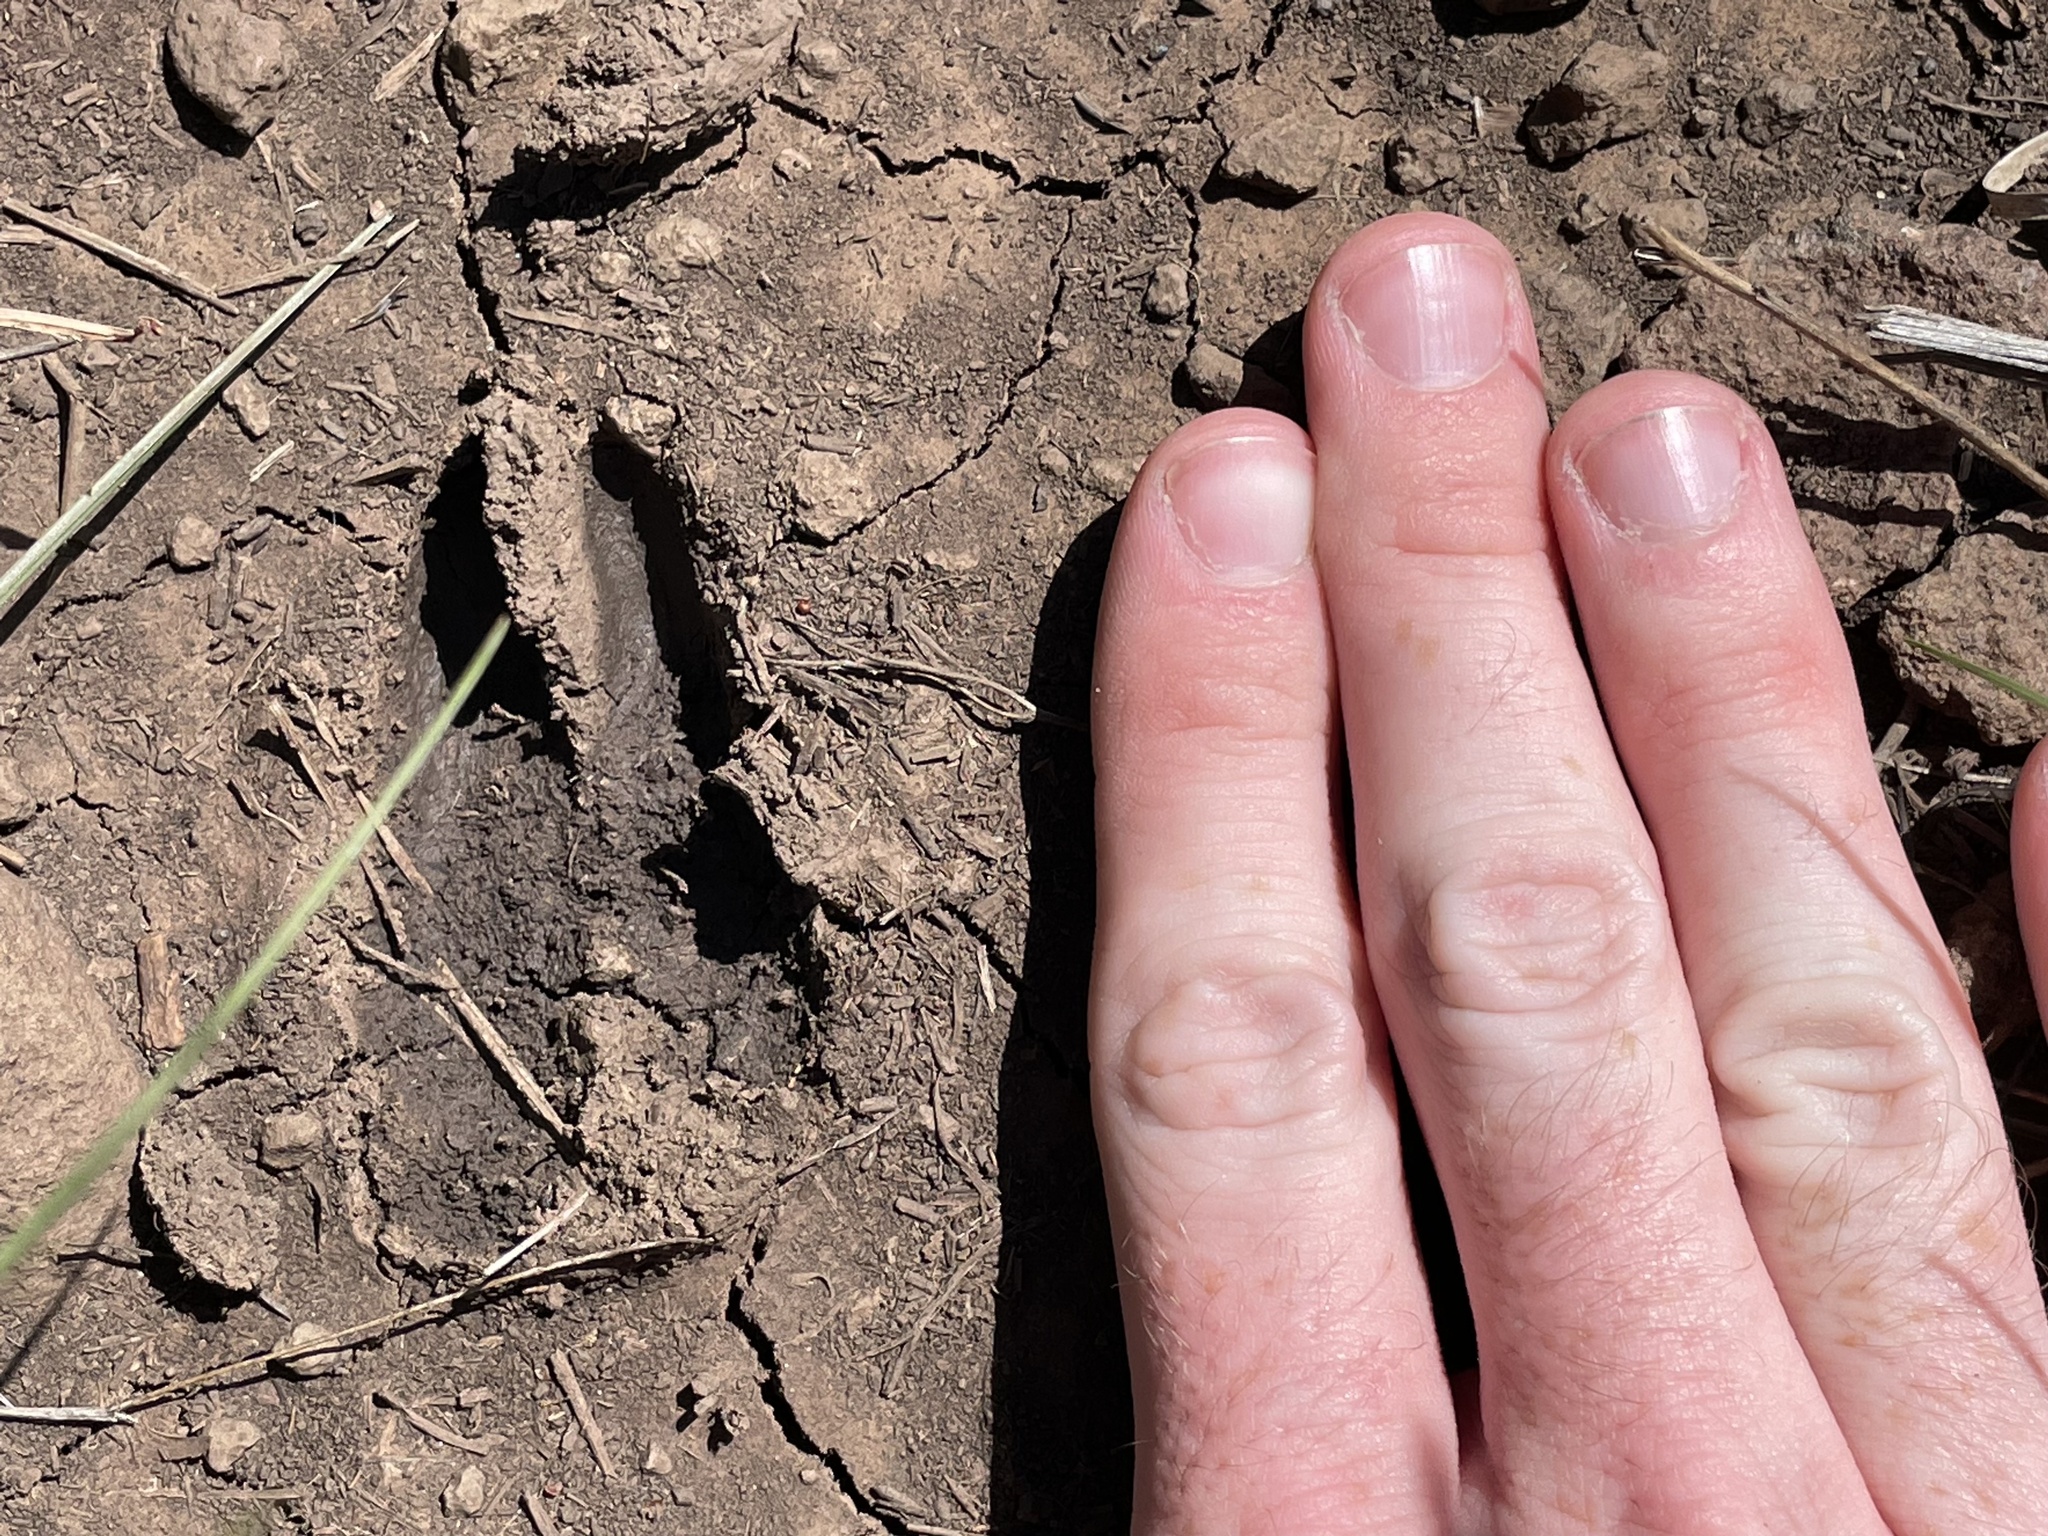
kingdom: Animalia
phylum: Chordata
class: Mammalia
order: Artiodactyla
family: Antilocapridae
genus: Antilocapra
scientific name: Antilocapra americana
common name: Pronghorn
